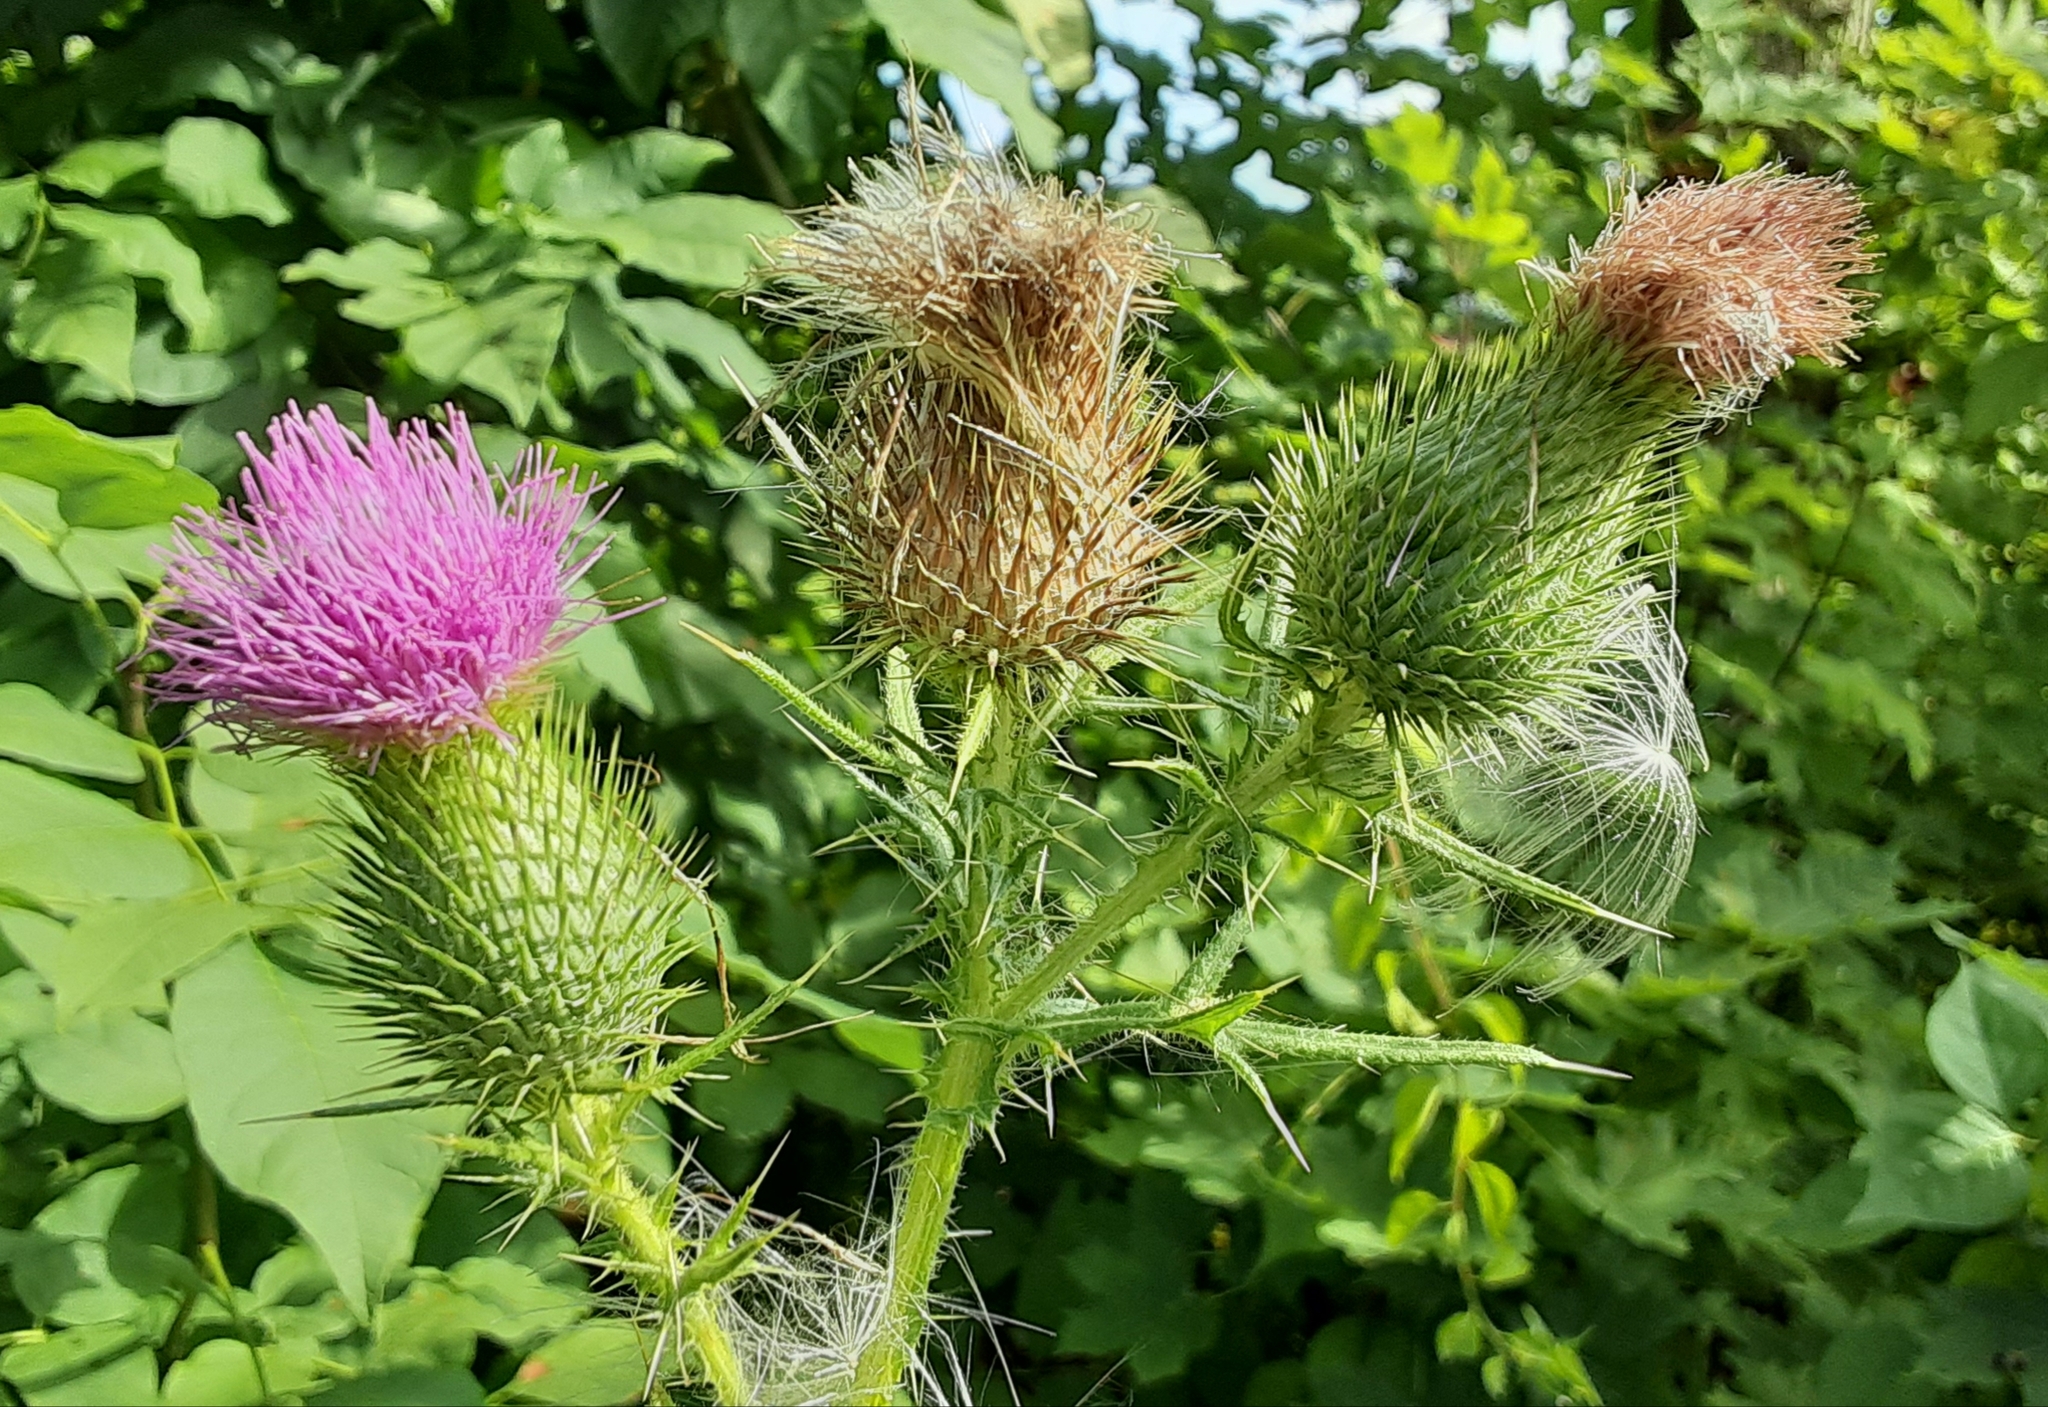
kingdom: Plantae
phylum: Tracheophyta
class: Magnoliopsida
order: Asterales
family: Asteraceae
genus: Cirsium
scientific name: Cirsium vulgare
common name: Bull thistle
